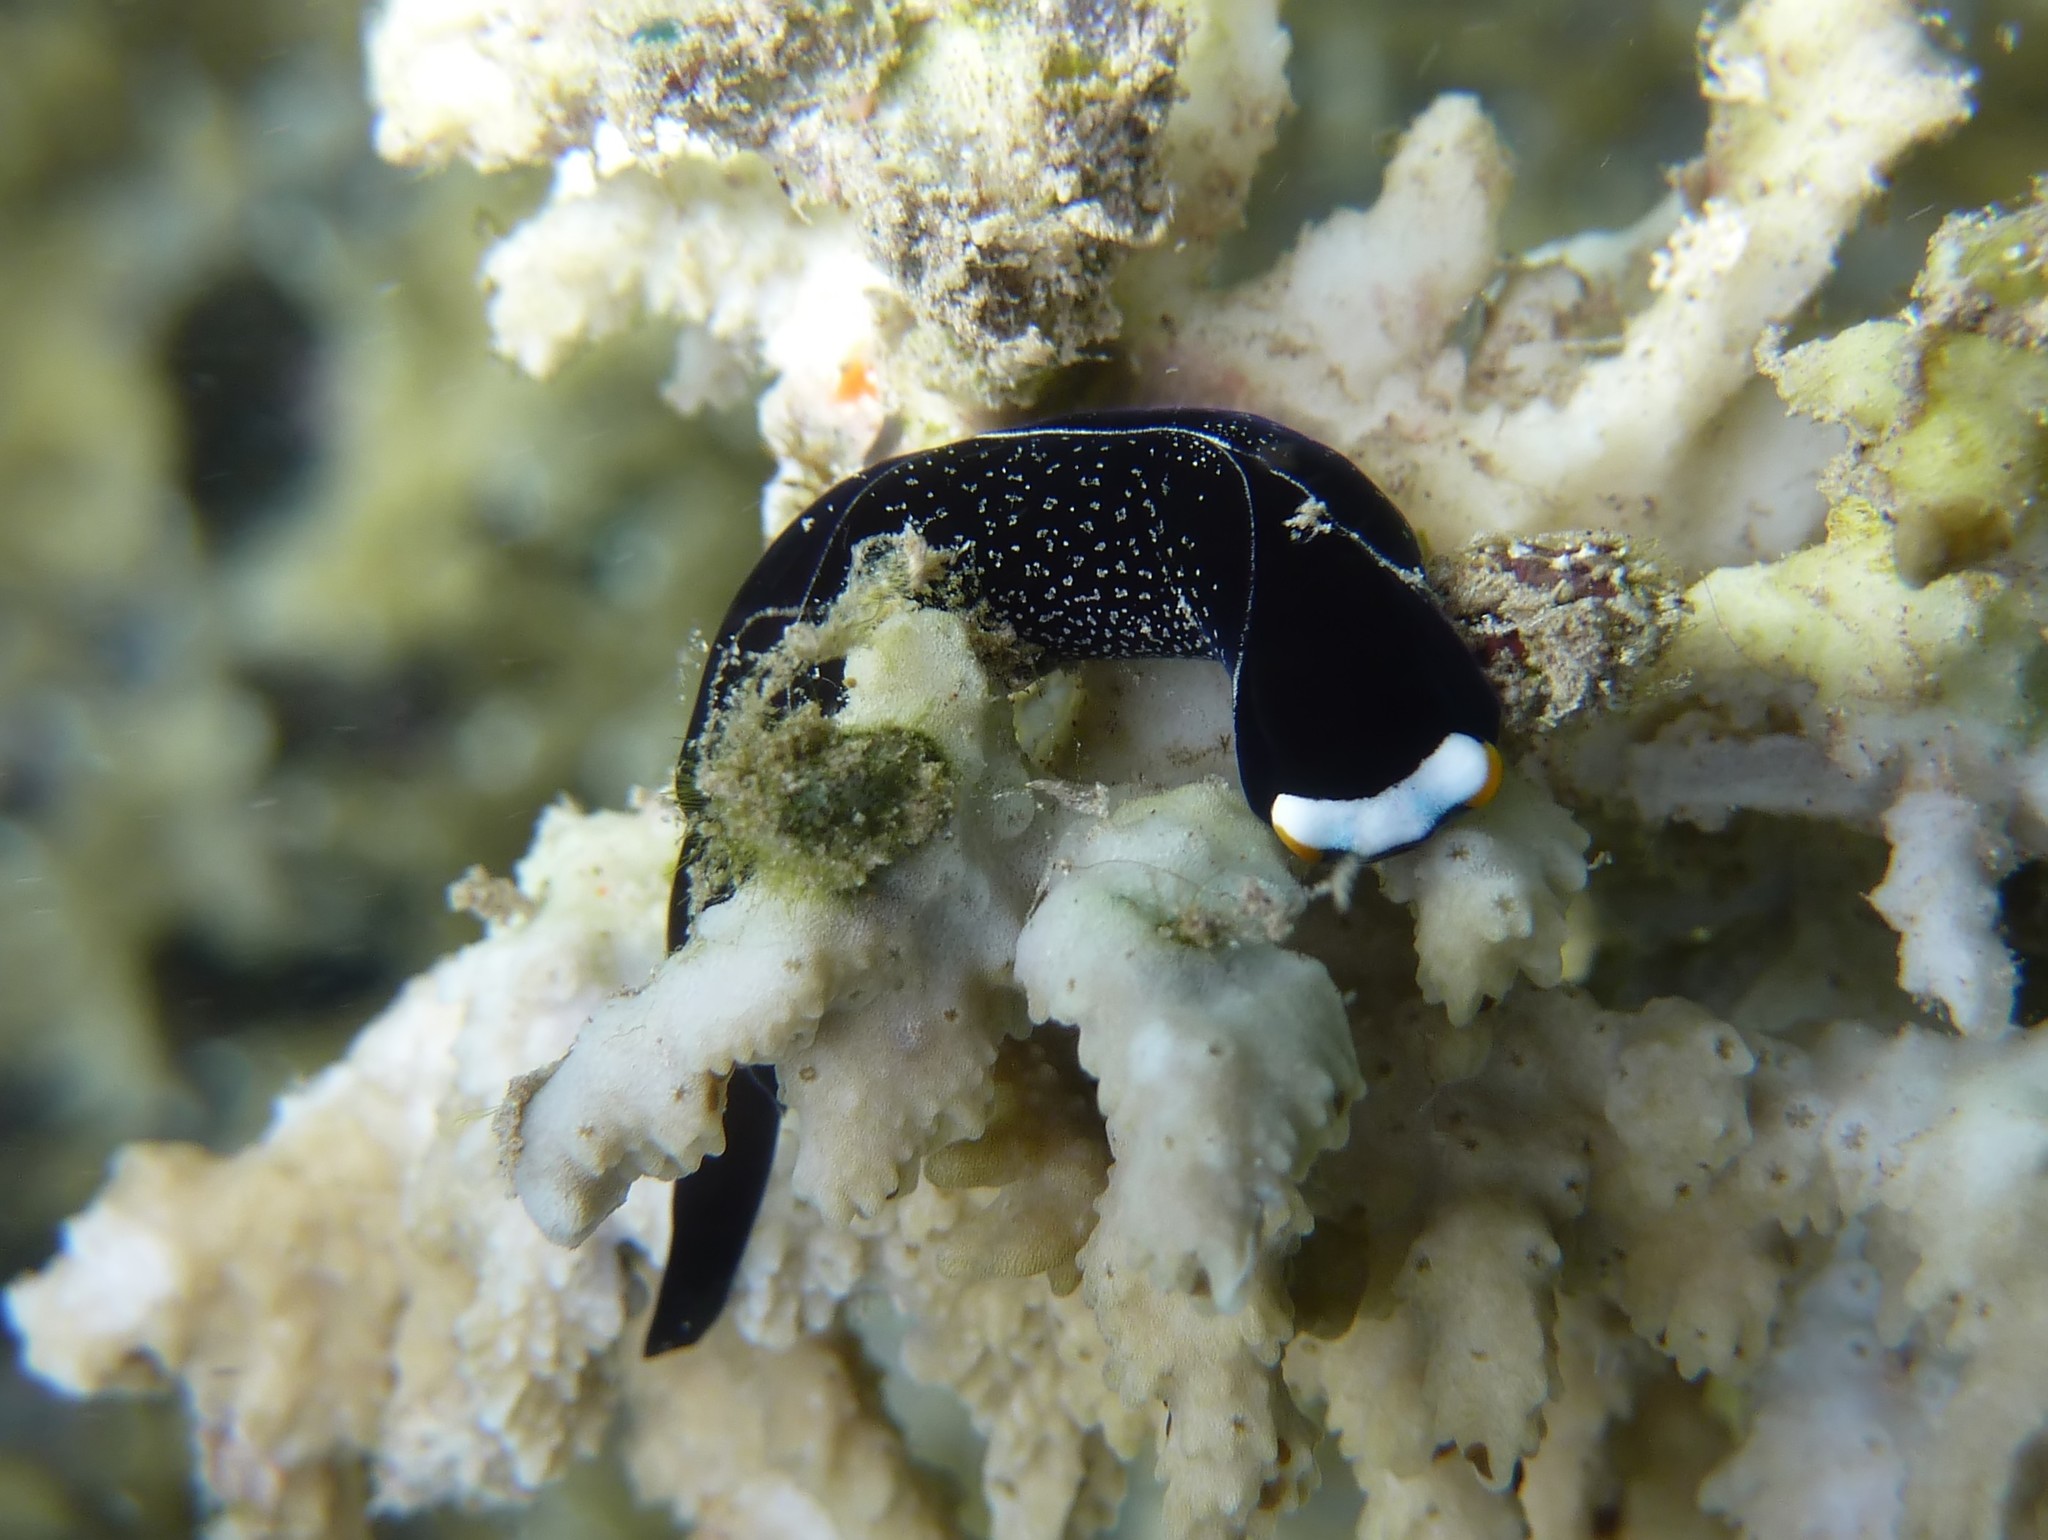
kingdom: Animalia
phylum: Mollusca
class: Gastropoda
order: Cephalaspidea
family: Aglajidae
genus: Mariaglaja
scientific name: Mariaglaja inornata
